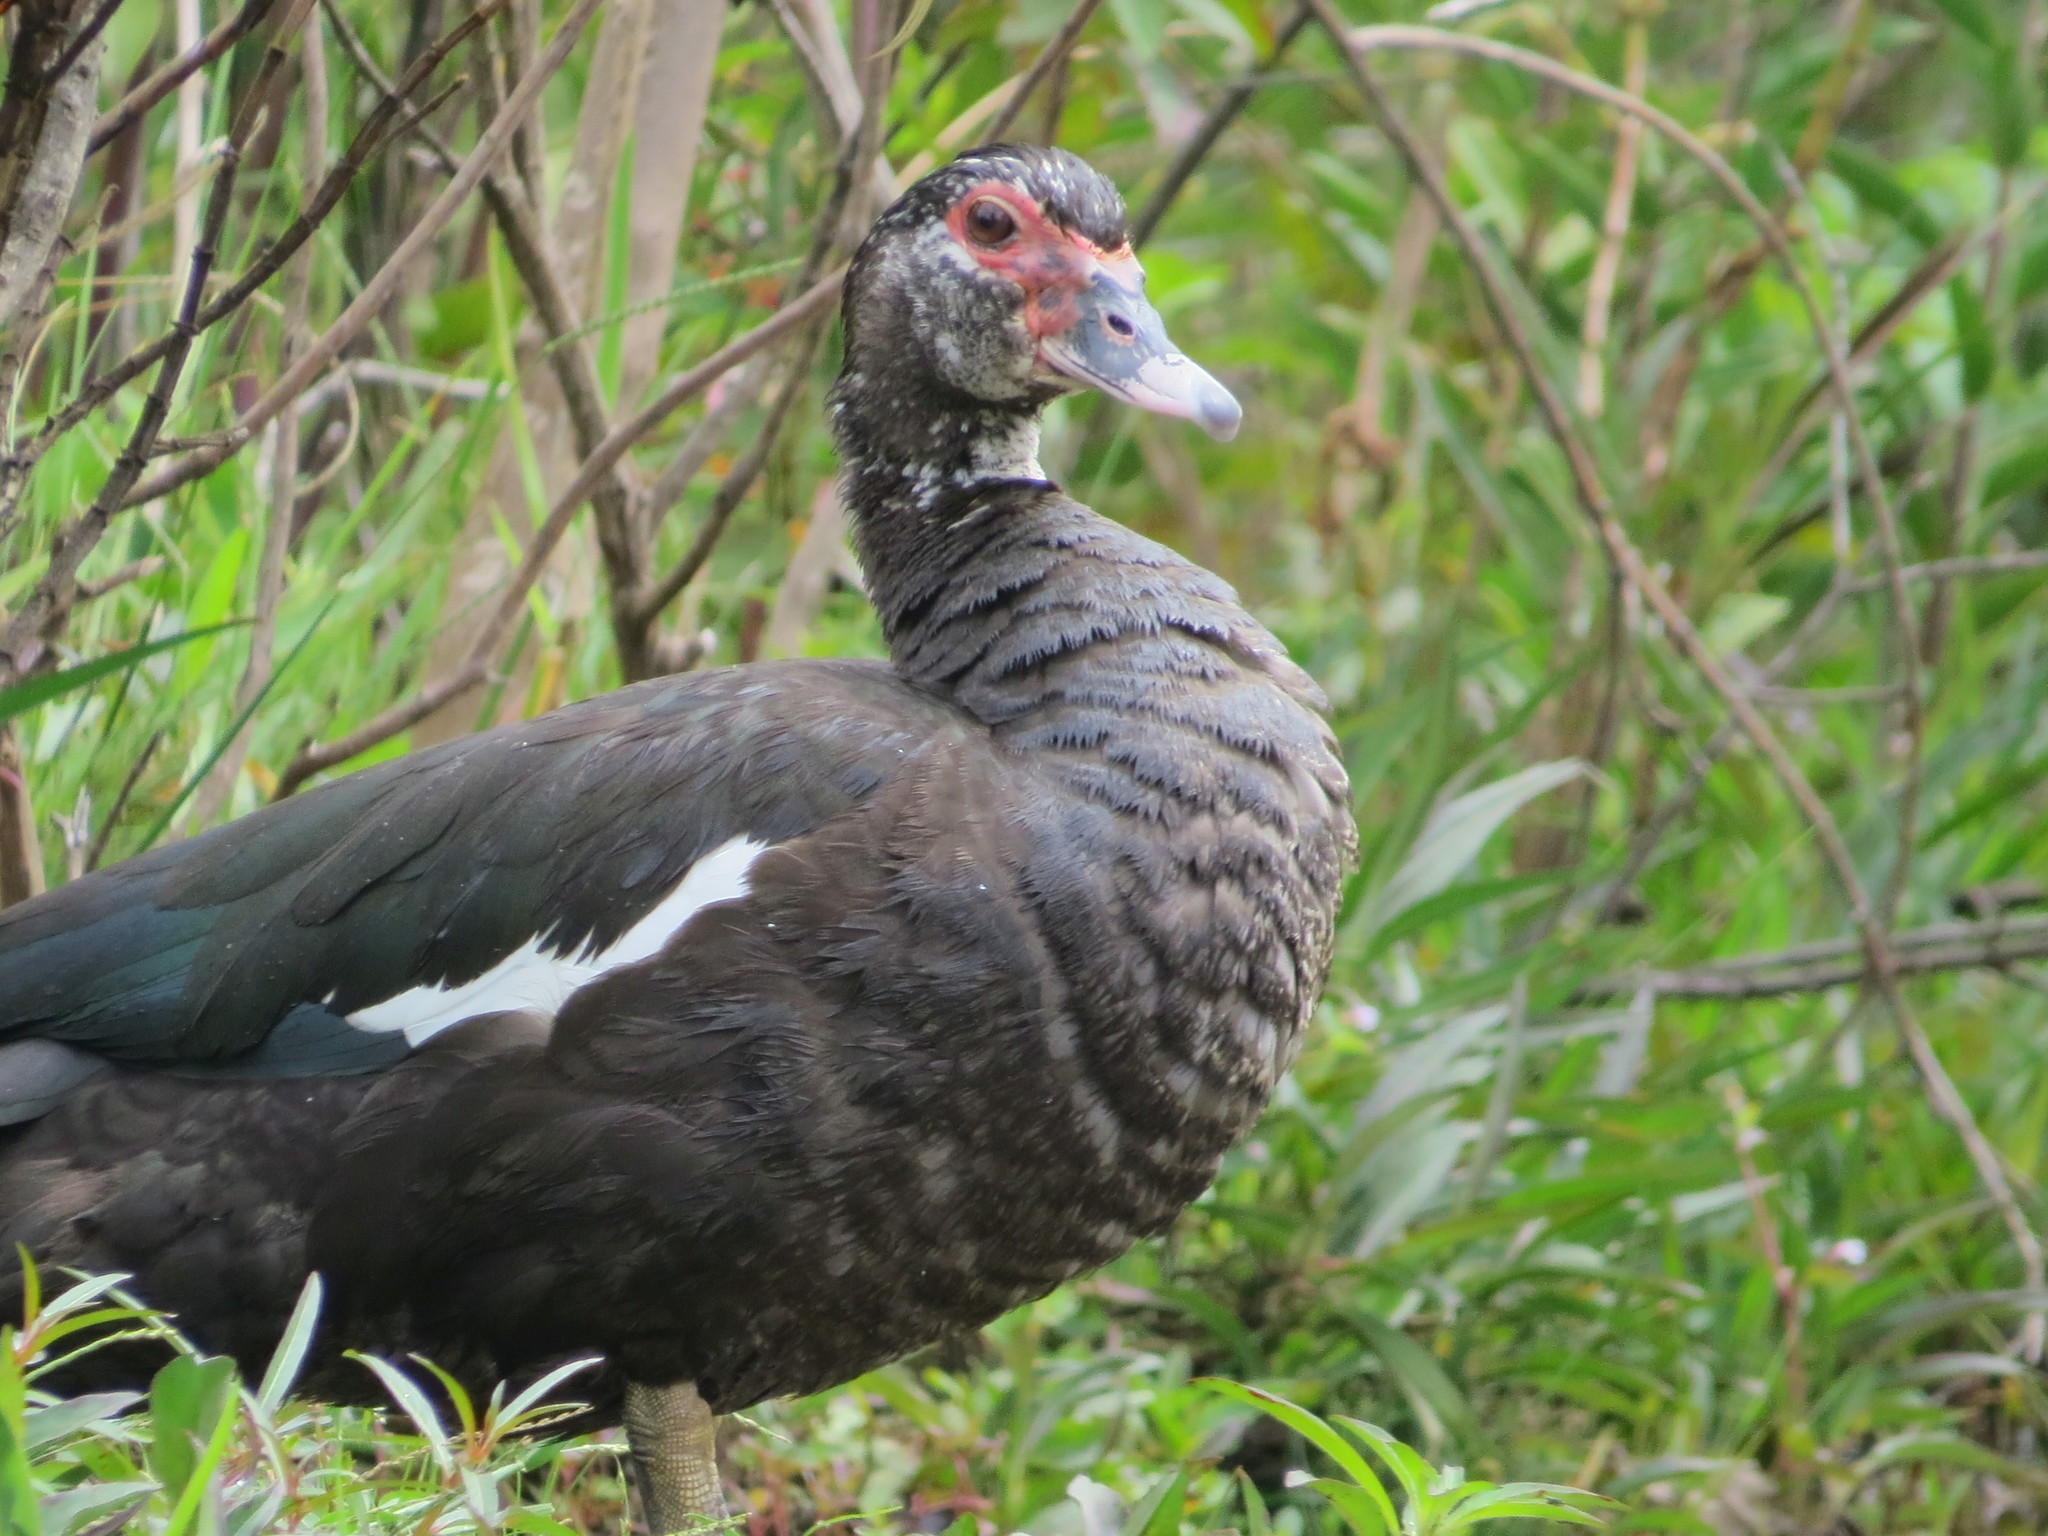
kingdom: Animalia
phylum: Chordata
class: Aves
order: Anseriformes
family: Anatidae
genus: Cairina
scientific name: Cairina moschata
